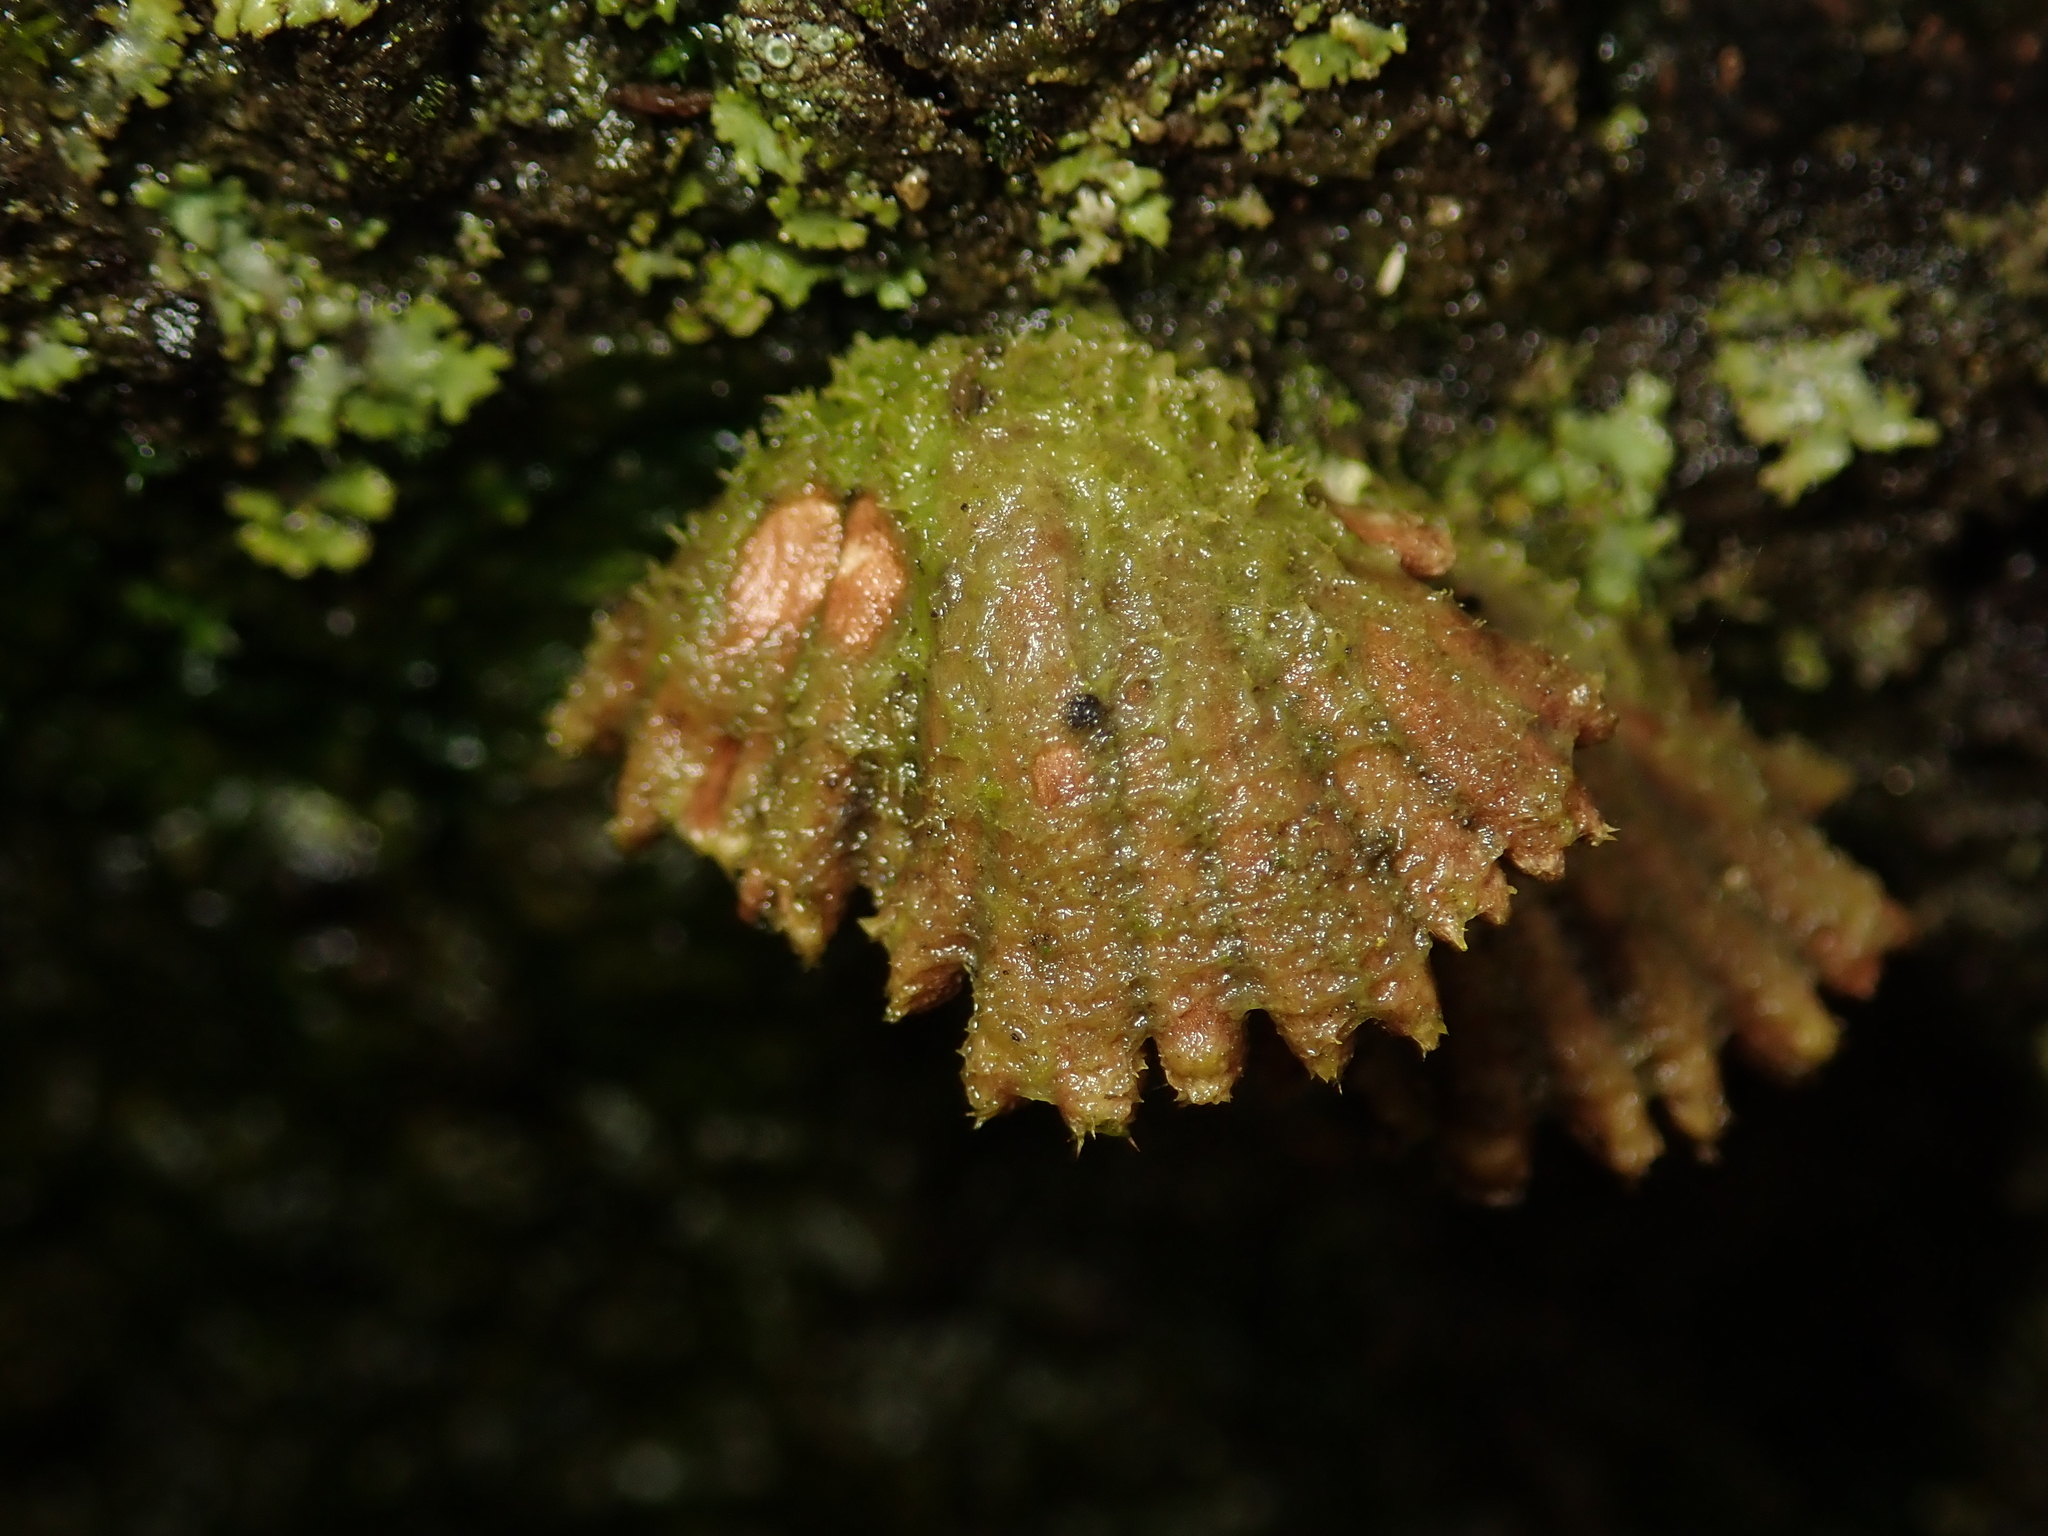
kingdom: Fungi
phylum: Basidiomycota
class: Agaricomycetes
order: Agaricales
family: Schizophyllaceae
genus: Schizophyllum
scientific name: Schizophyllum commune
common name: Common porecrust
